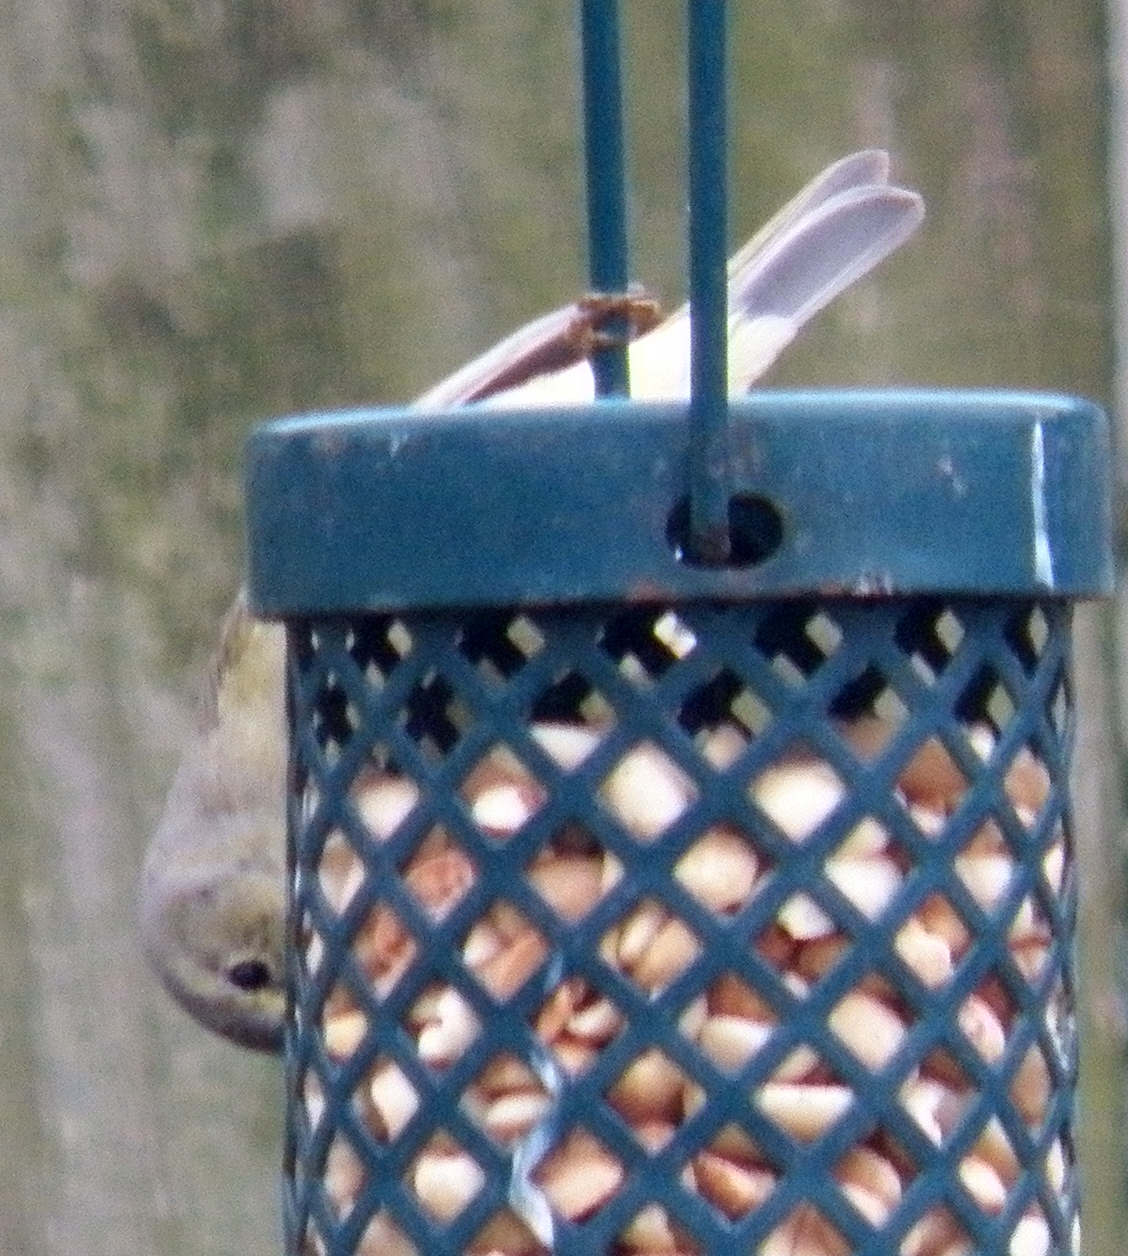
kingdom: Animalia
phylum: Chordata
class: Aves
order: Passeriformes
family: Parulidae
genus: Leiothlypis
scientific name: Leiothlypis celata
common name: Orange-crowned warbler
